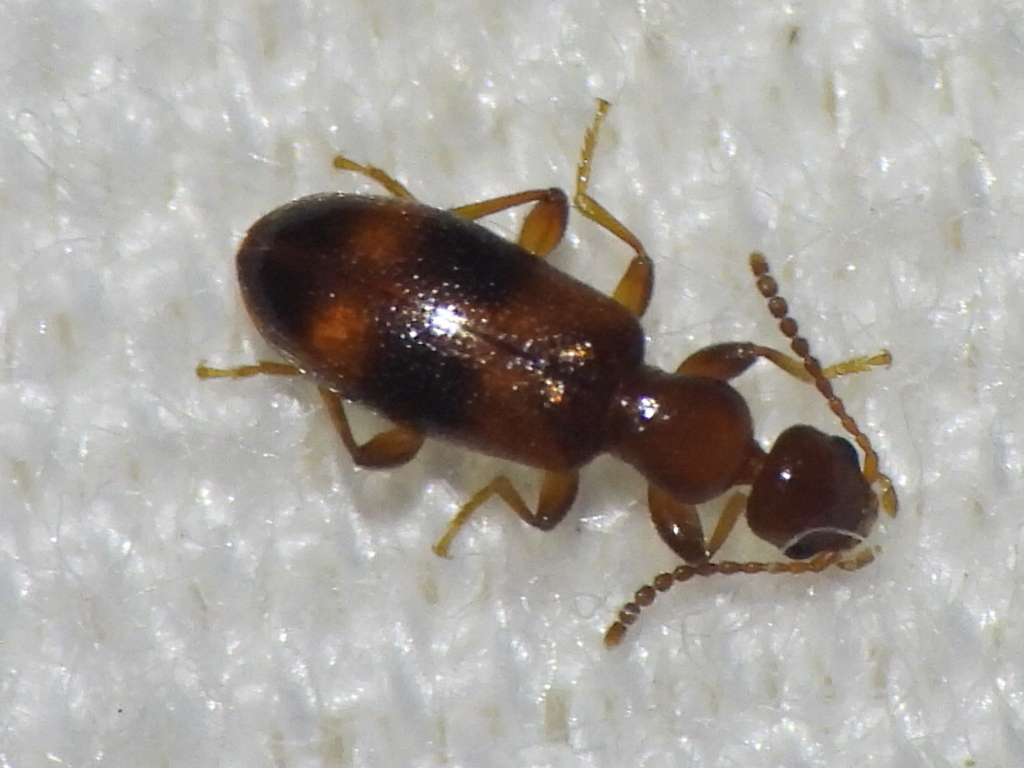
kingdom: Animalia
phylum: Arthropoda
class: Insecta
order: Coleoptera
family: Anthicidae
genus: Vacusus
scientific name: Vacusus vicinus
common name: Antlike flower beetle
